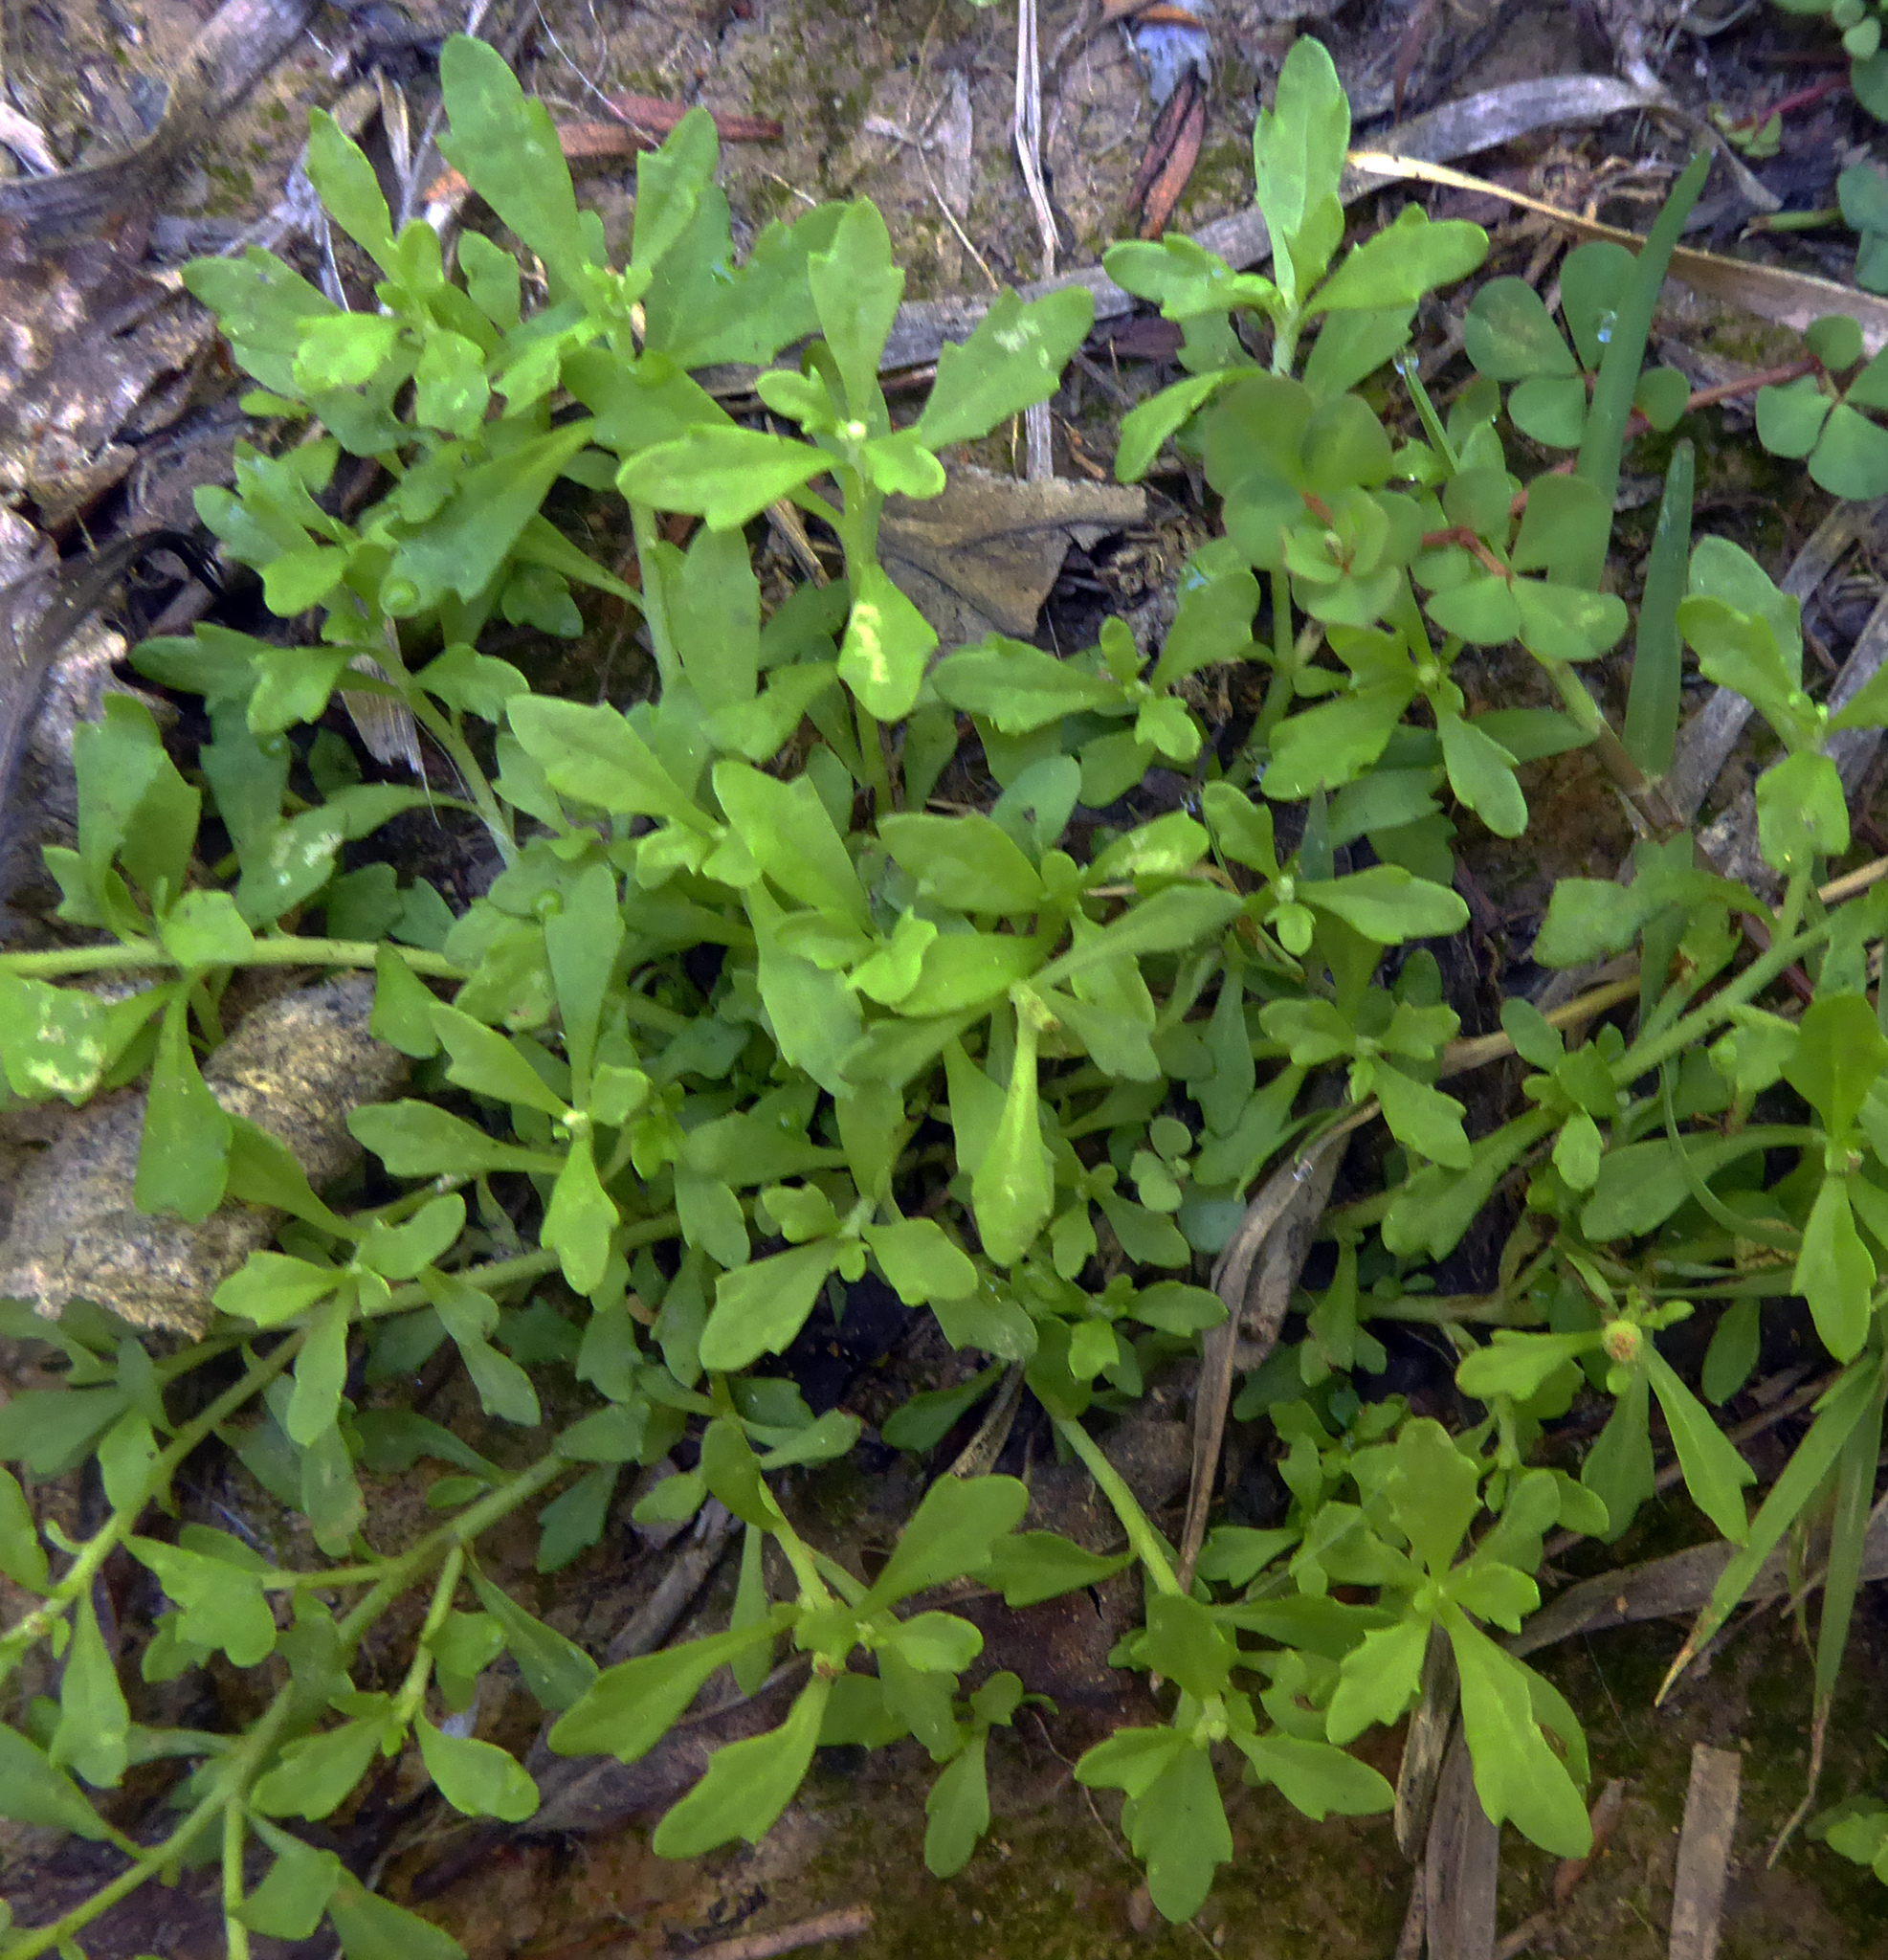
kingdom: Plantae
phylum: Tracheophyta
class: Magnoliopsida
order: Asterales
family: Asteraceae
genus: Centipeda
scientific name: Centipeda minima
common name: Spreading sneezeweed
